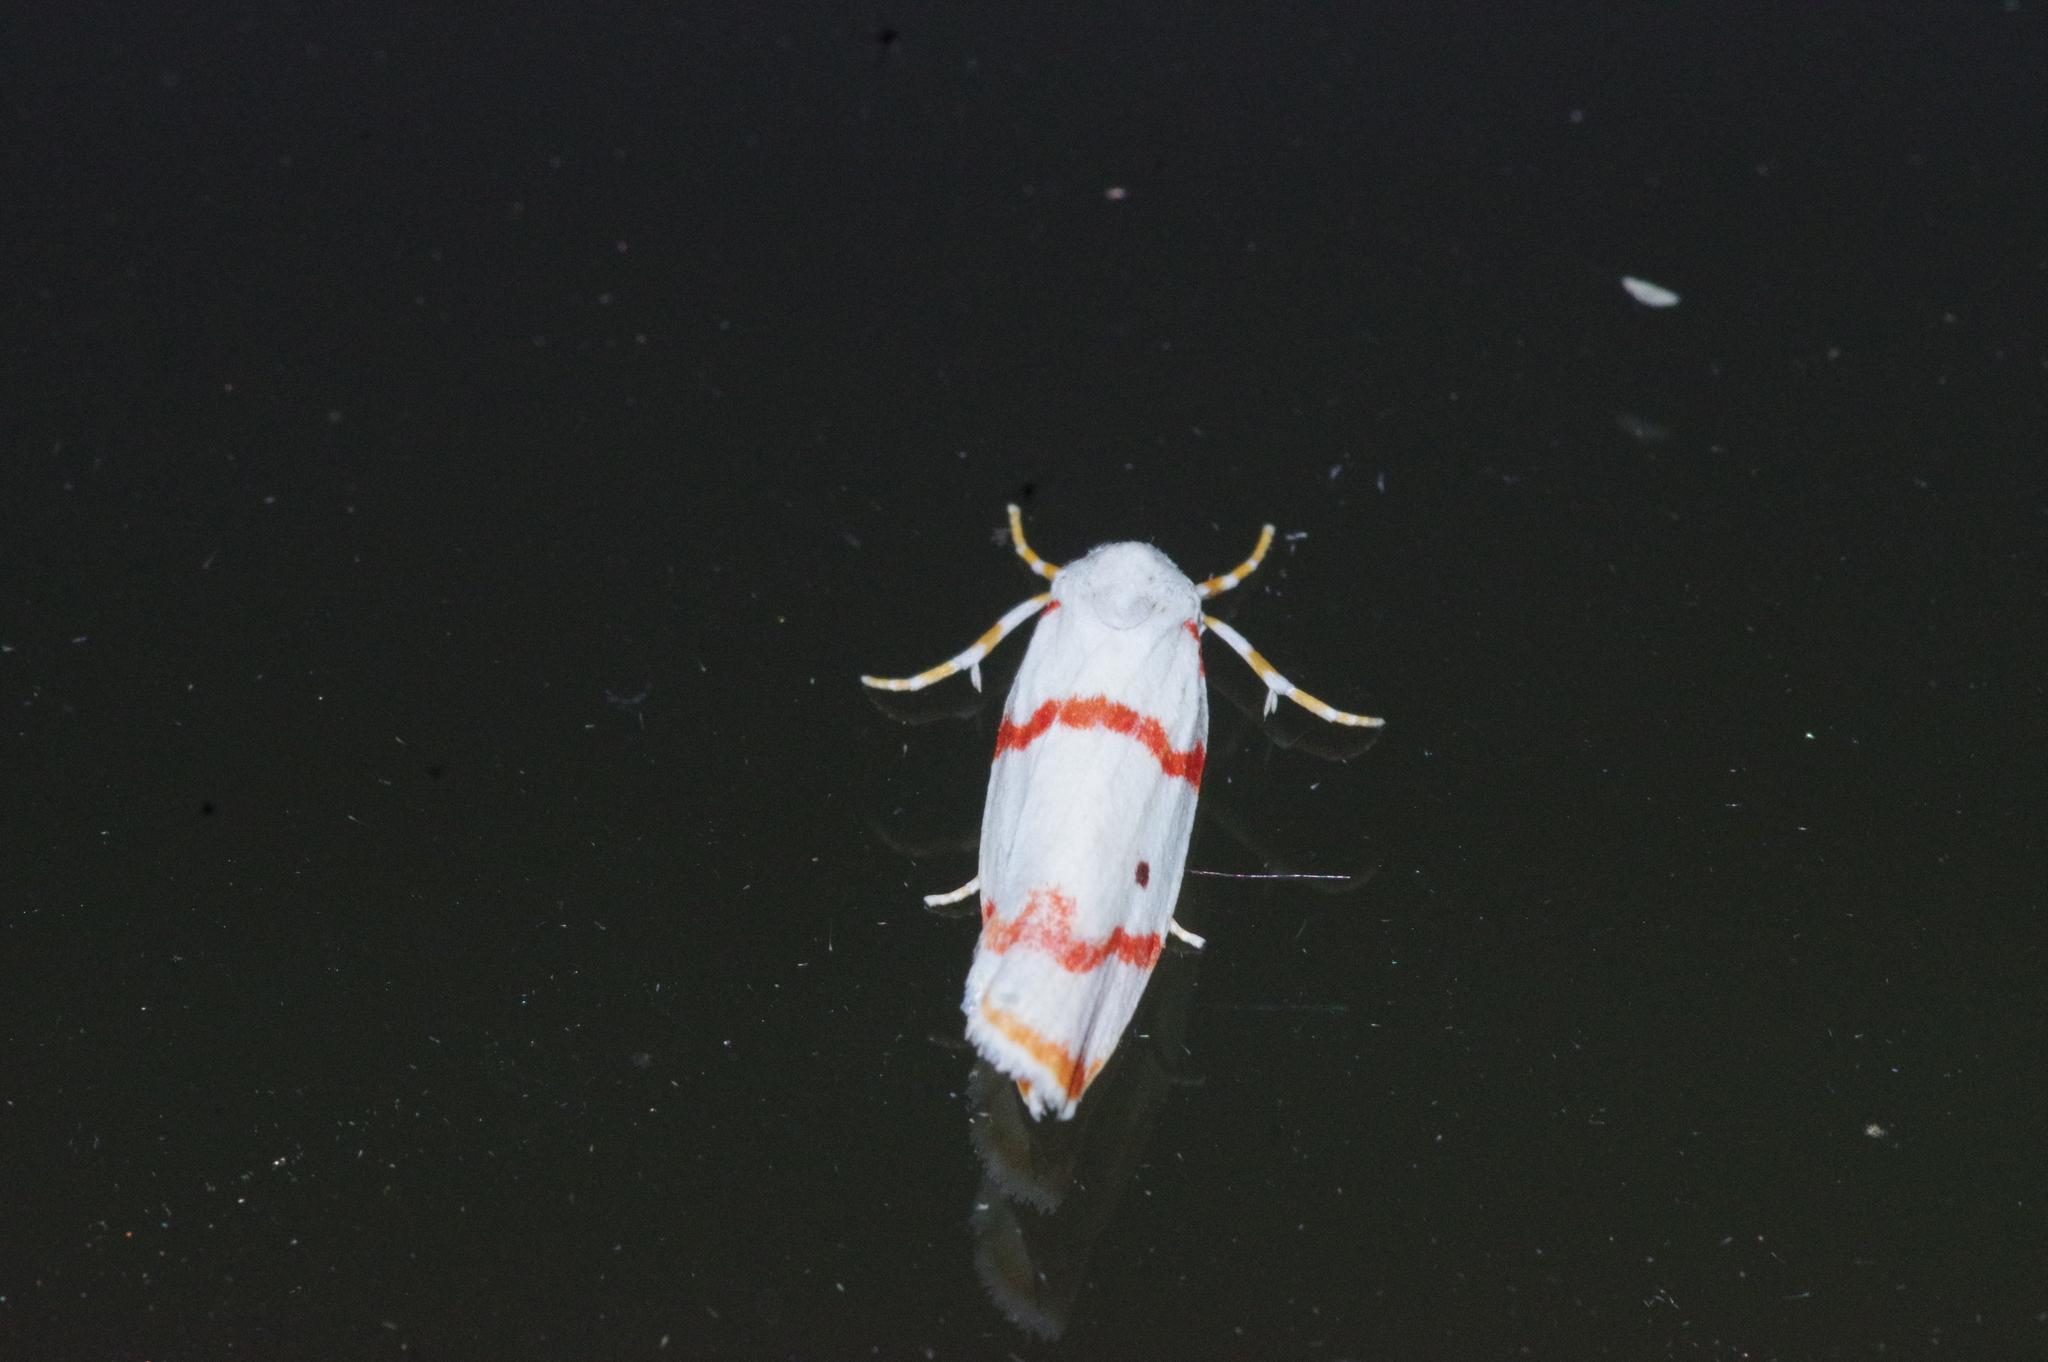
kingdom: Animalia
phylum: Arthropoda
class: Insecta
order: Lepidoptera
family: Erebidae
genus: Cyana
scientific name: Cyana unipuncta
